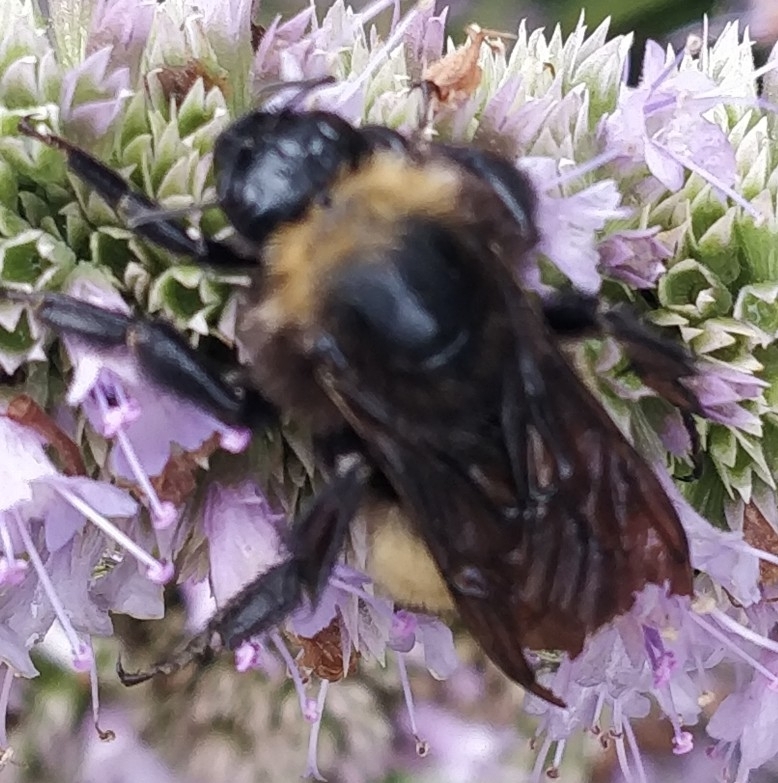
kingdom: Animalia
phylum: Arthropoda
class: Insecta
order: Hymenoptera
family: Apidae
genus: Bombus
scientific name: Bombus pensylvanicus
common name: Bumble bee
